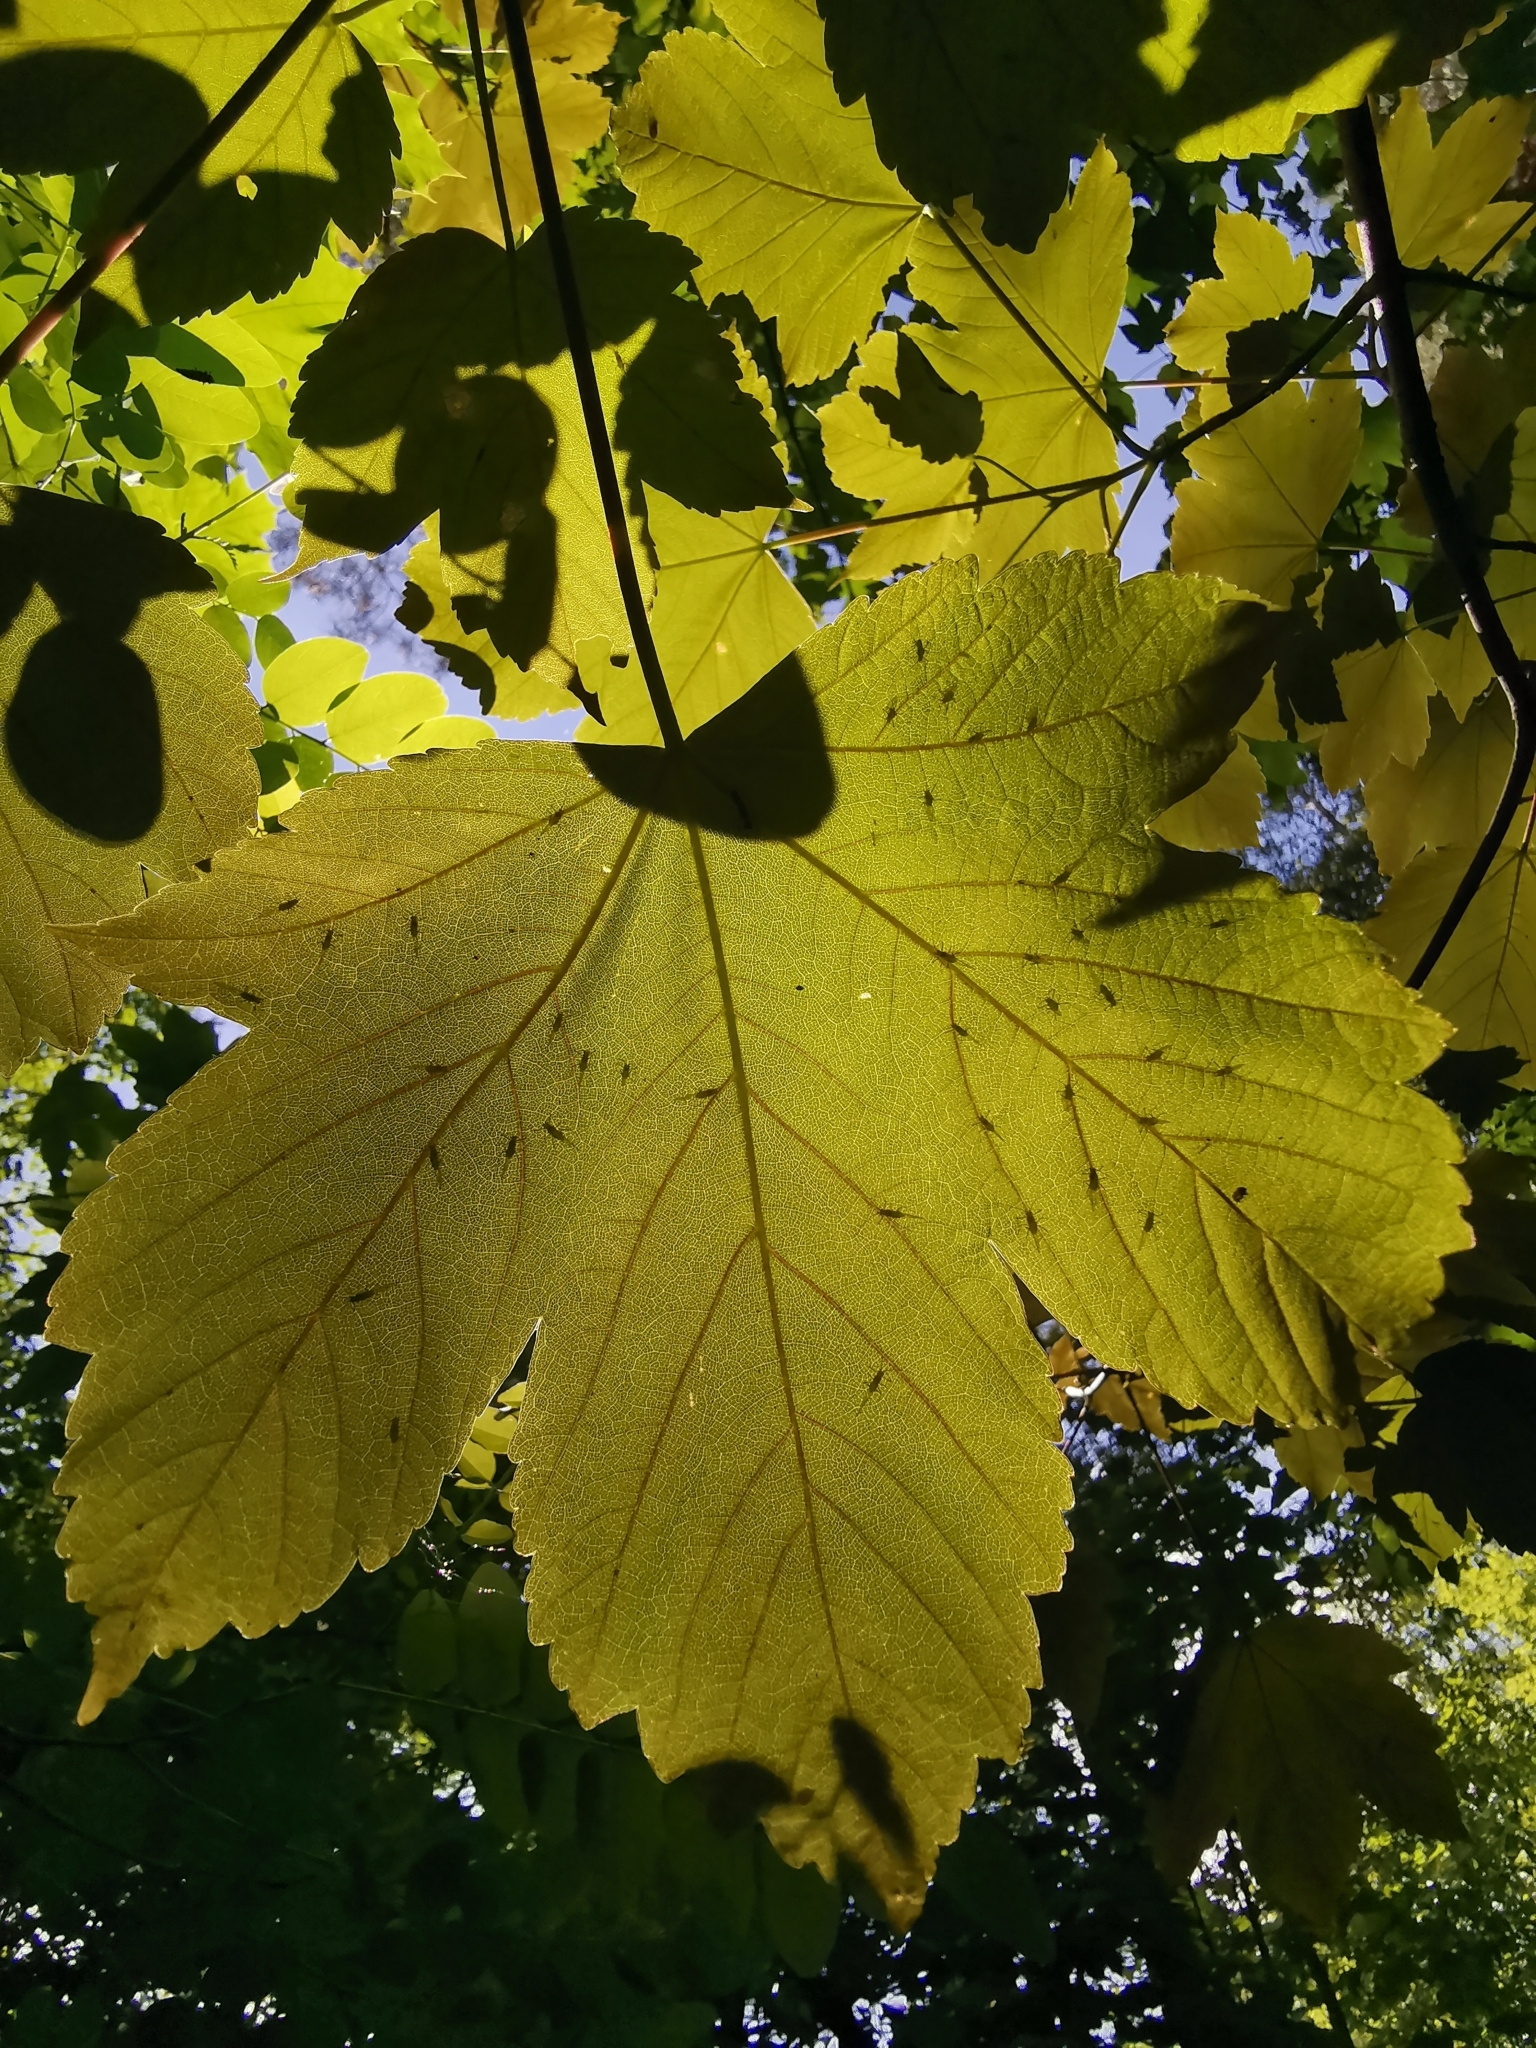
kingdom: Plantae
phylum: Tracheophyta
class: Magnoliopsida
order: Sapindales
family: Sapindaceae
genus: Acer
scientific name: Acer pseudoplatanus
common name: Sycamore
